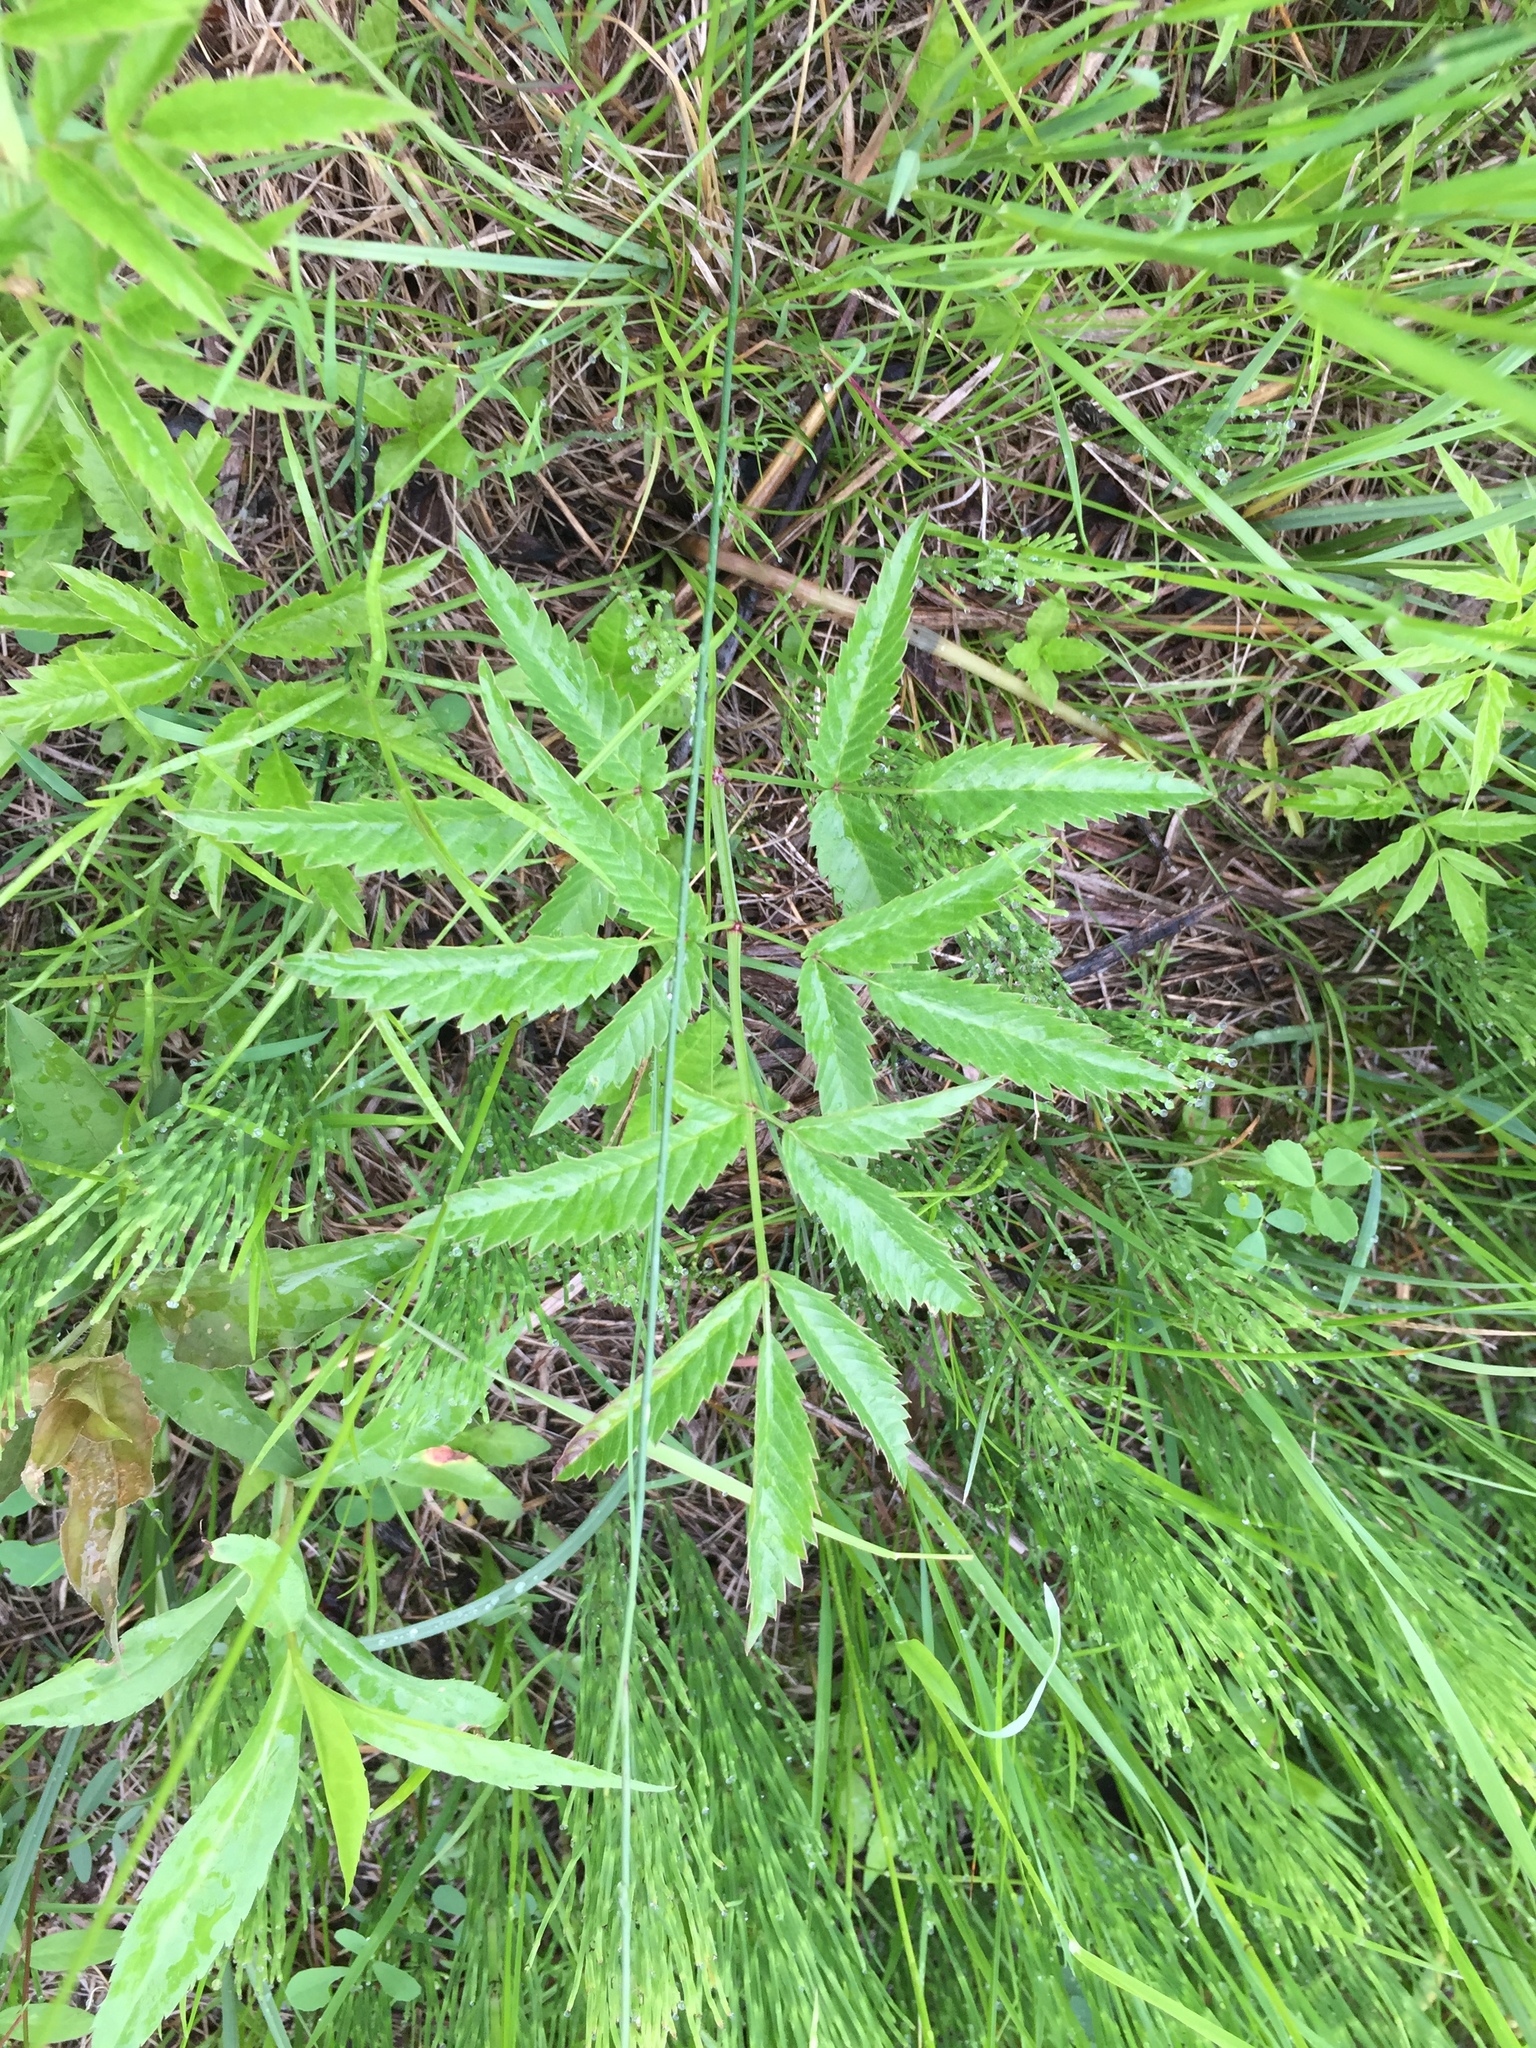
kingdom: Plantae
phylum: Tracheophyta
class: Magnoliopsida
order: Apiales
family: Apiaceae
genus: Cicuta
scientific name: Cicuta maculata
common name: Spotted cowbane
